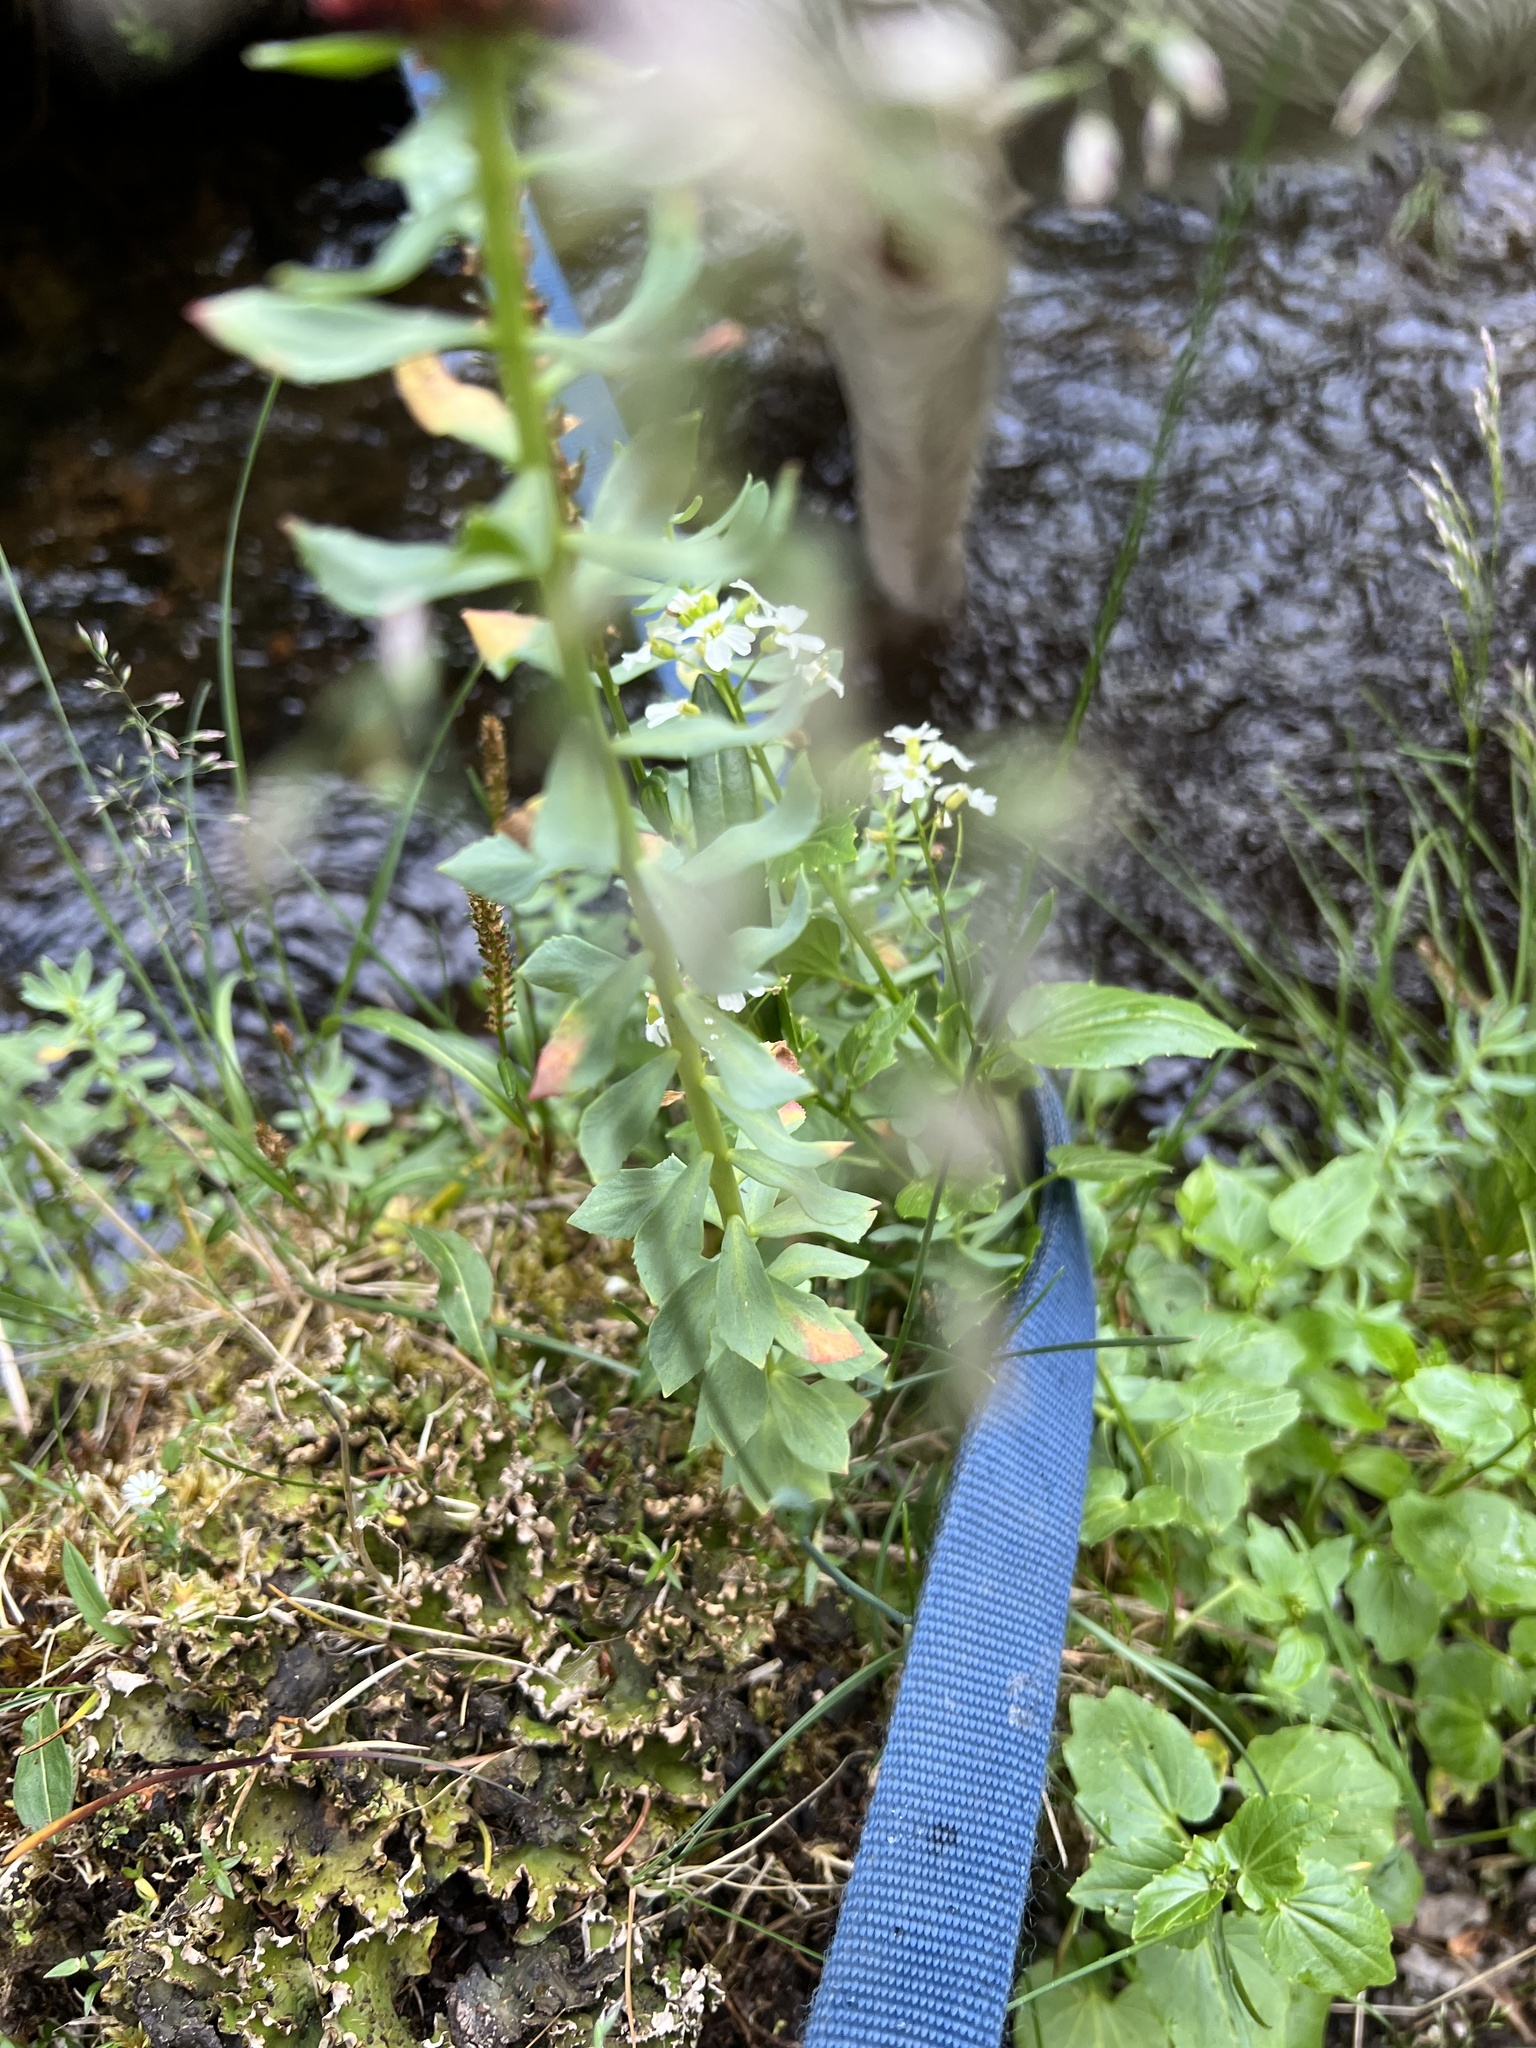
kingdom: Plantae
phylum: Tracheophyta
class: Magnoliopsida
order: Saxifragales
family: Crassulaceae
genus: Rhodiola
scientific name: Rhodiola integrifolia
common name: Western roseroot
